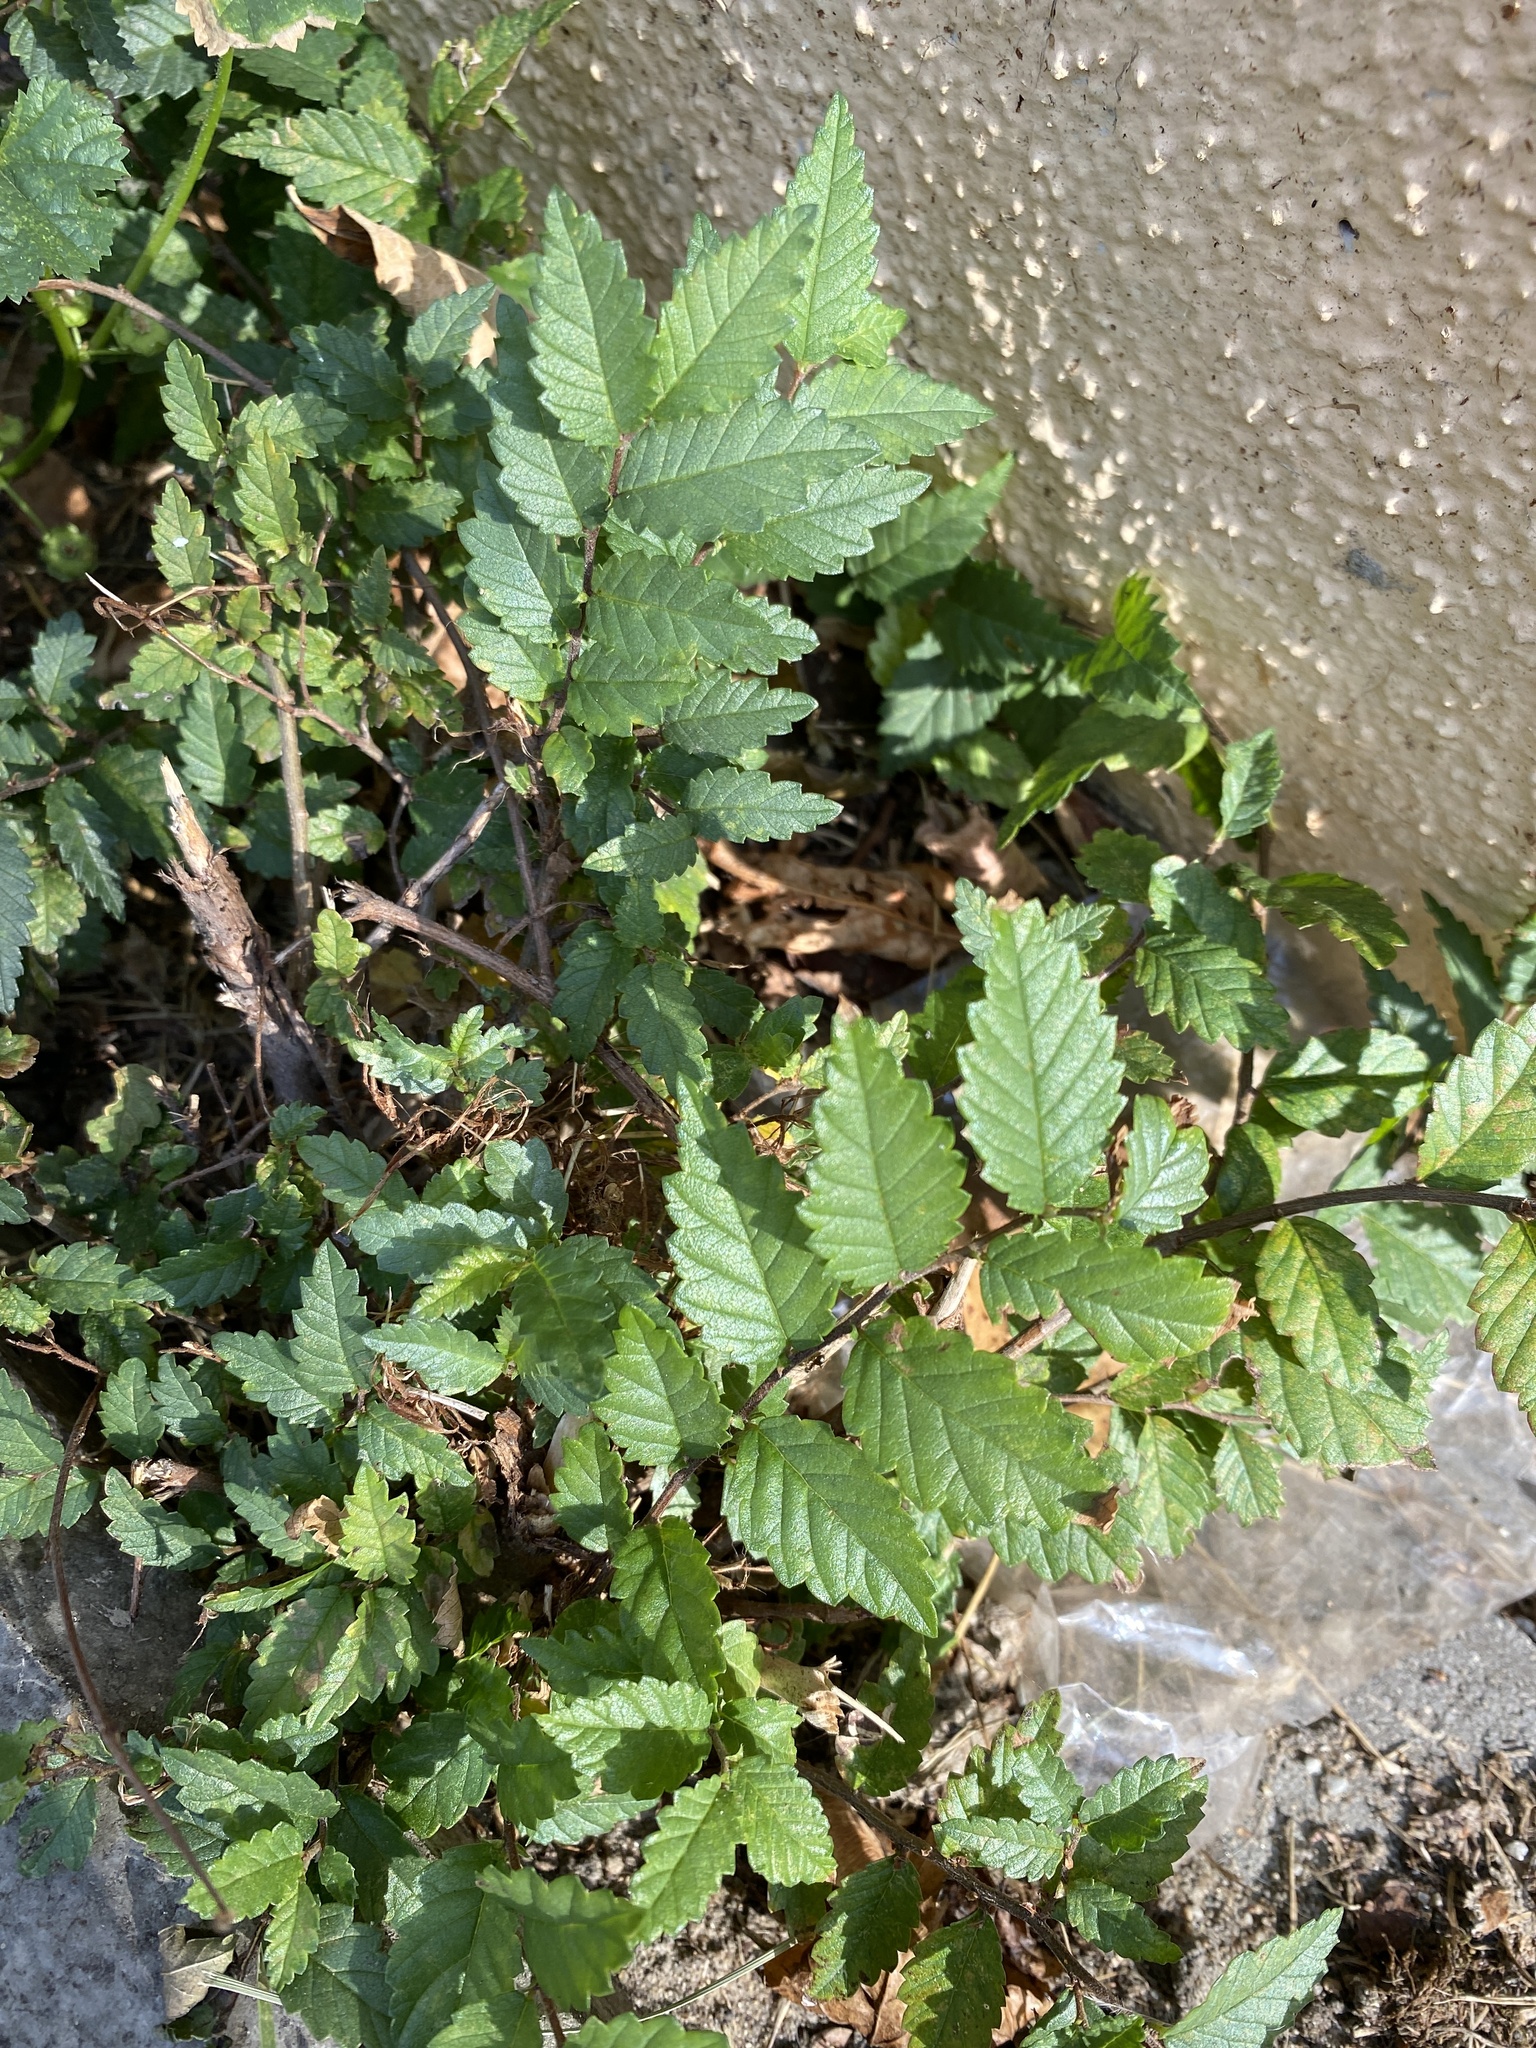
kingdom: Plantae
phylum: Tracheophyta
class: Magnoliopsida
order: Rosales
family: Ulmaceae
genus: Ulmus
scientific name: Ulmus pumila
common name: Siberian elm
